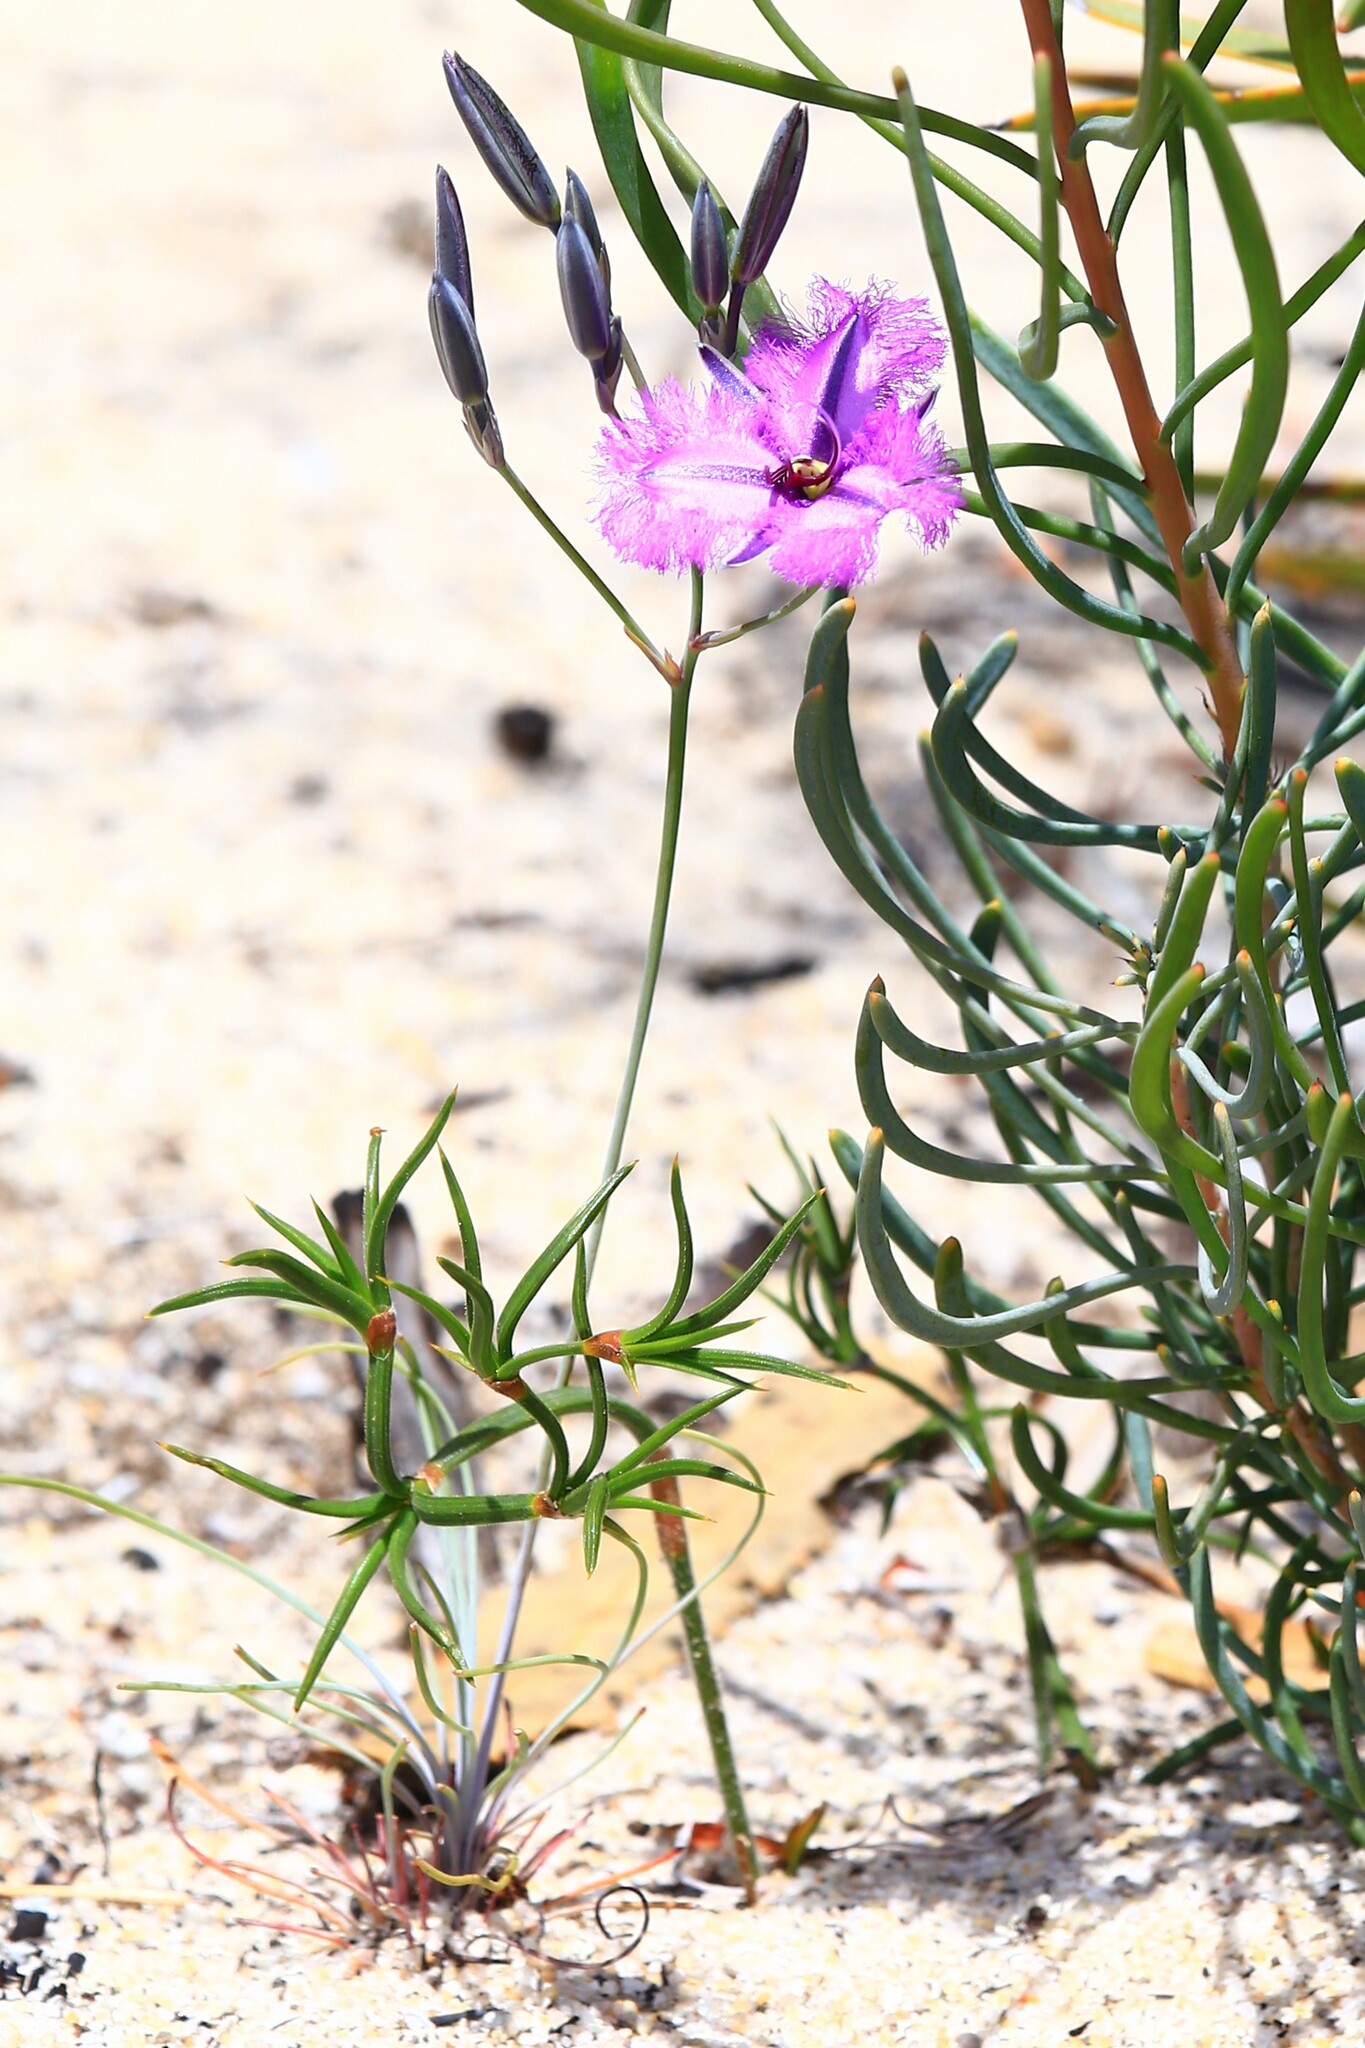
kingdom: Plantae
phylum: Tracheophyta
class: Liliopsida
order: Asparagales
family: Asparagaceae
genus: Thysanotus
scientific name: Thysanotus multiflorus
